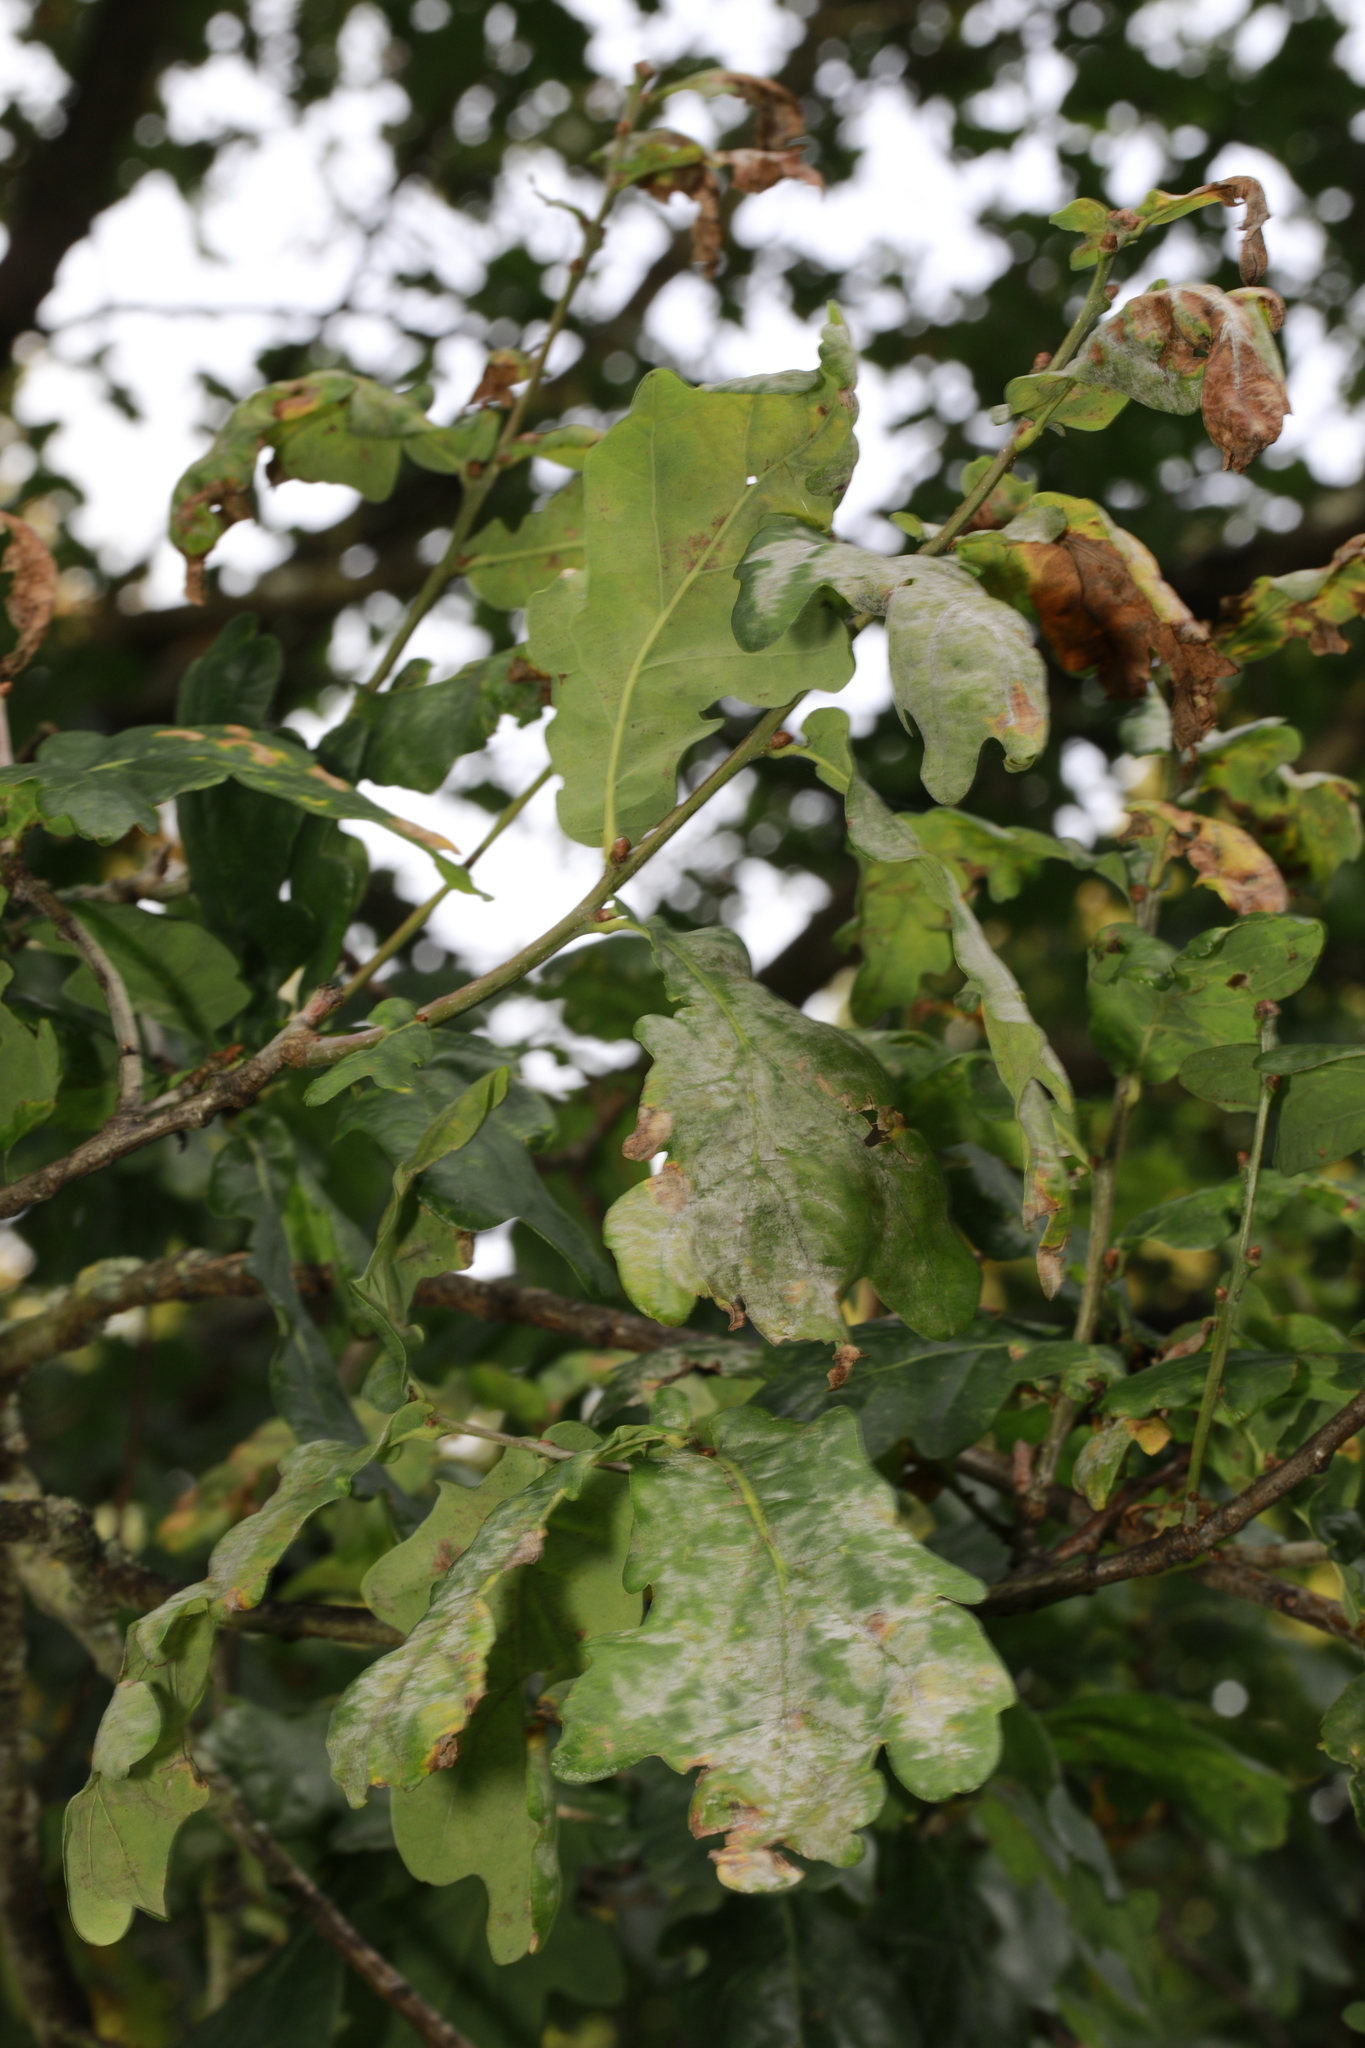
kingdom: Fungi
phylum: Ascomycota
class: Leotiomycetes
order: Helotiales
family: Erysiphaceae
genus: Erysiphe
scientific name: Erysiphe alphitoides
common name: Oak mildew
